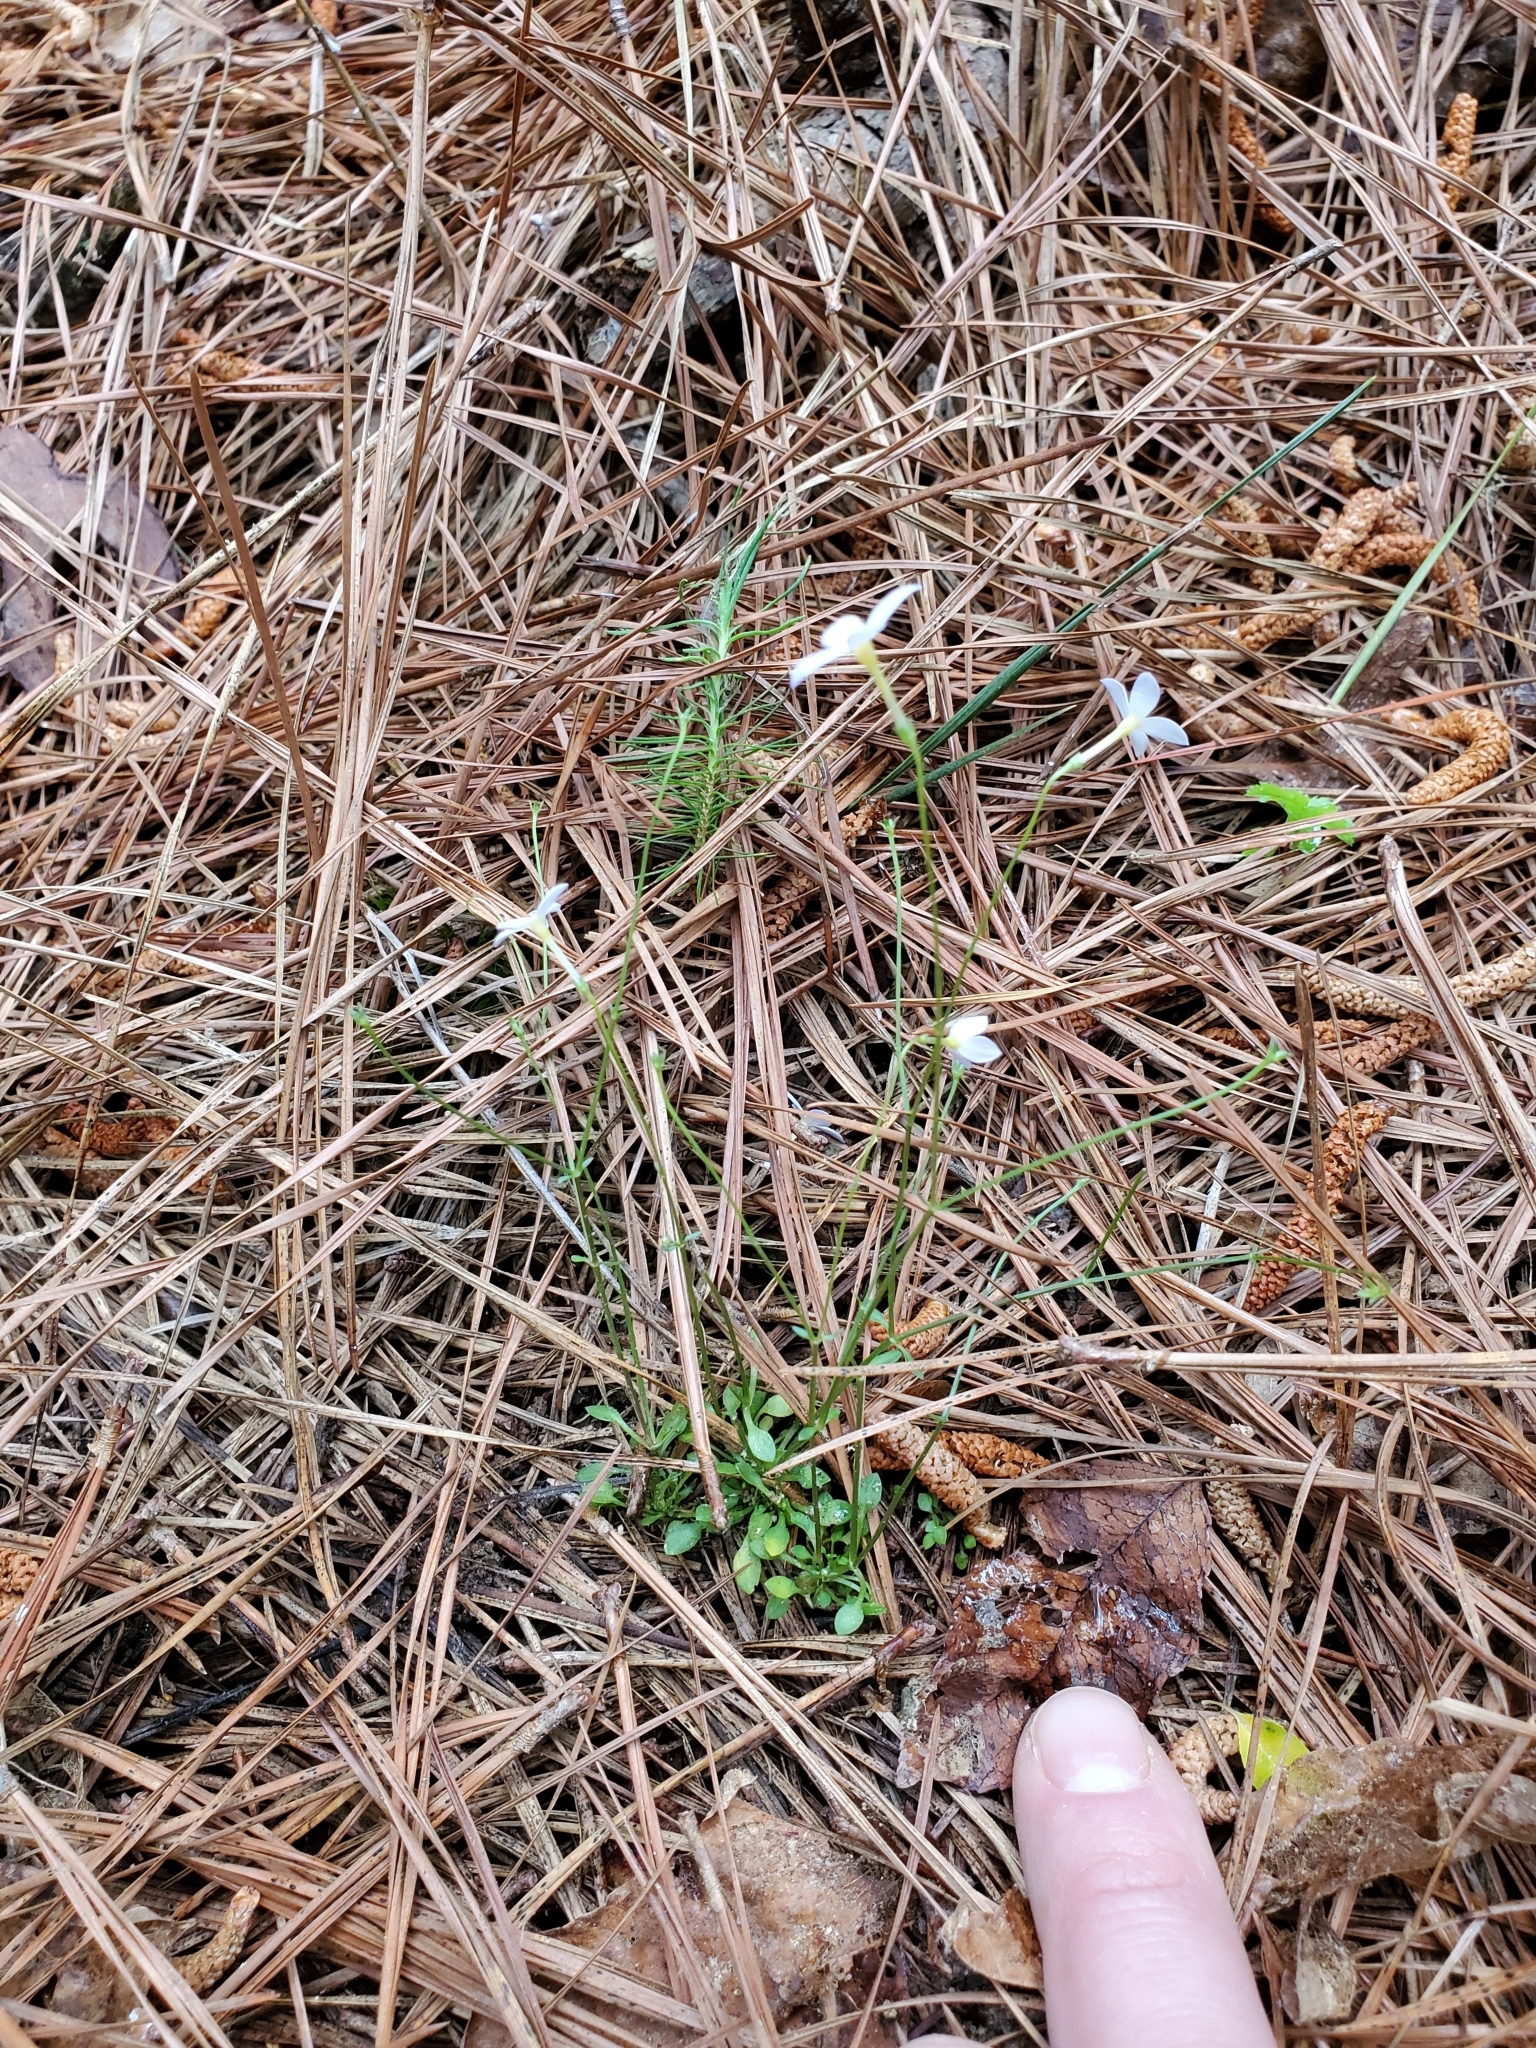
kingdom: Plantae
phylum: Tracheophyta
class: Magnoliopsida
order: Gentianales
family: Rubiaceae
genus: Houstonia
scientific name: Houstonia caerulea
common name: Bluets
